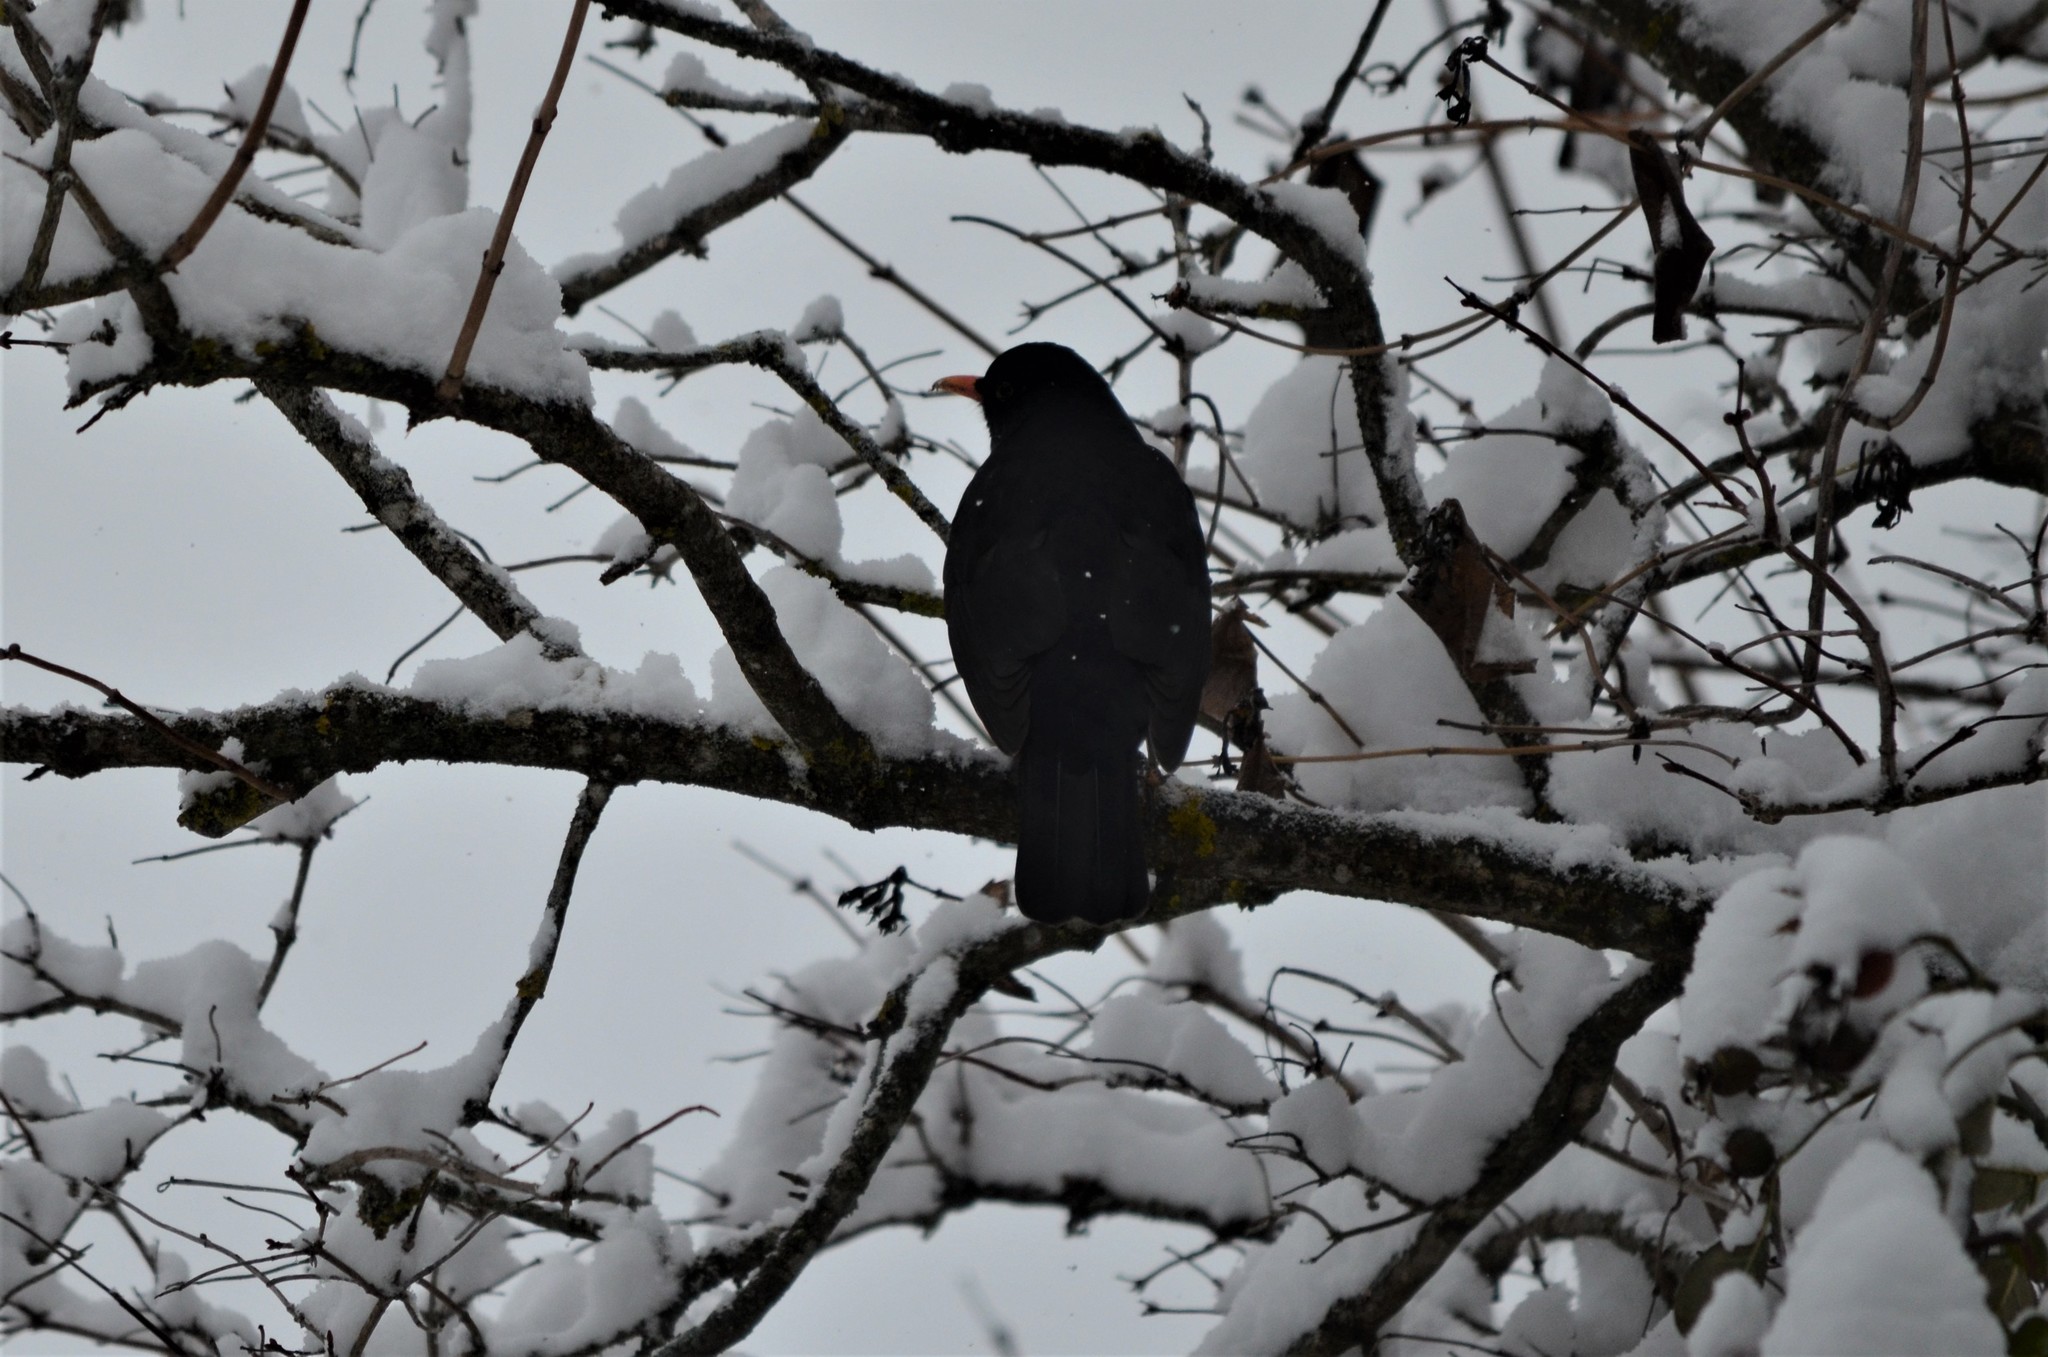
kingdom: Animalia
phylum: Chordata
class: Aves
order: Passeriformes
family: Turdidae
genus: Turdus
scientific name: Turdus merula
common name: Common blackbird
